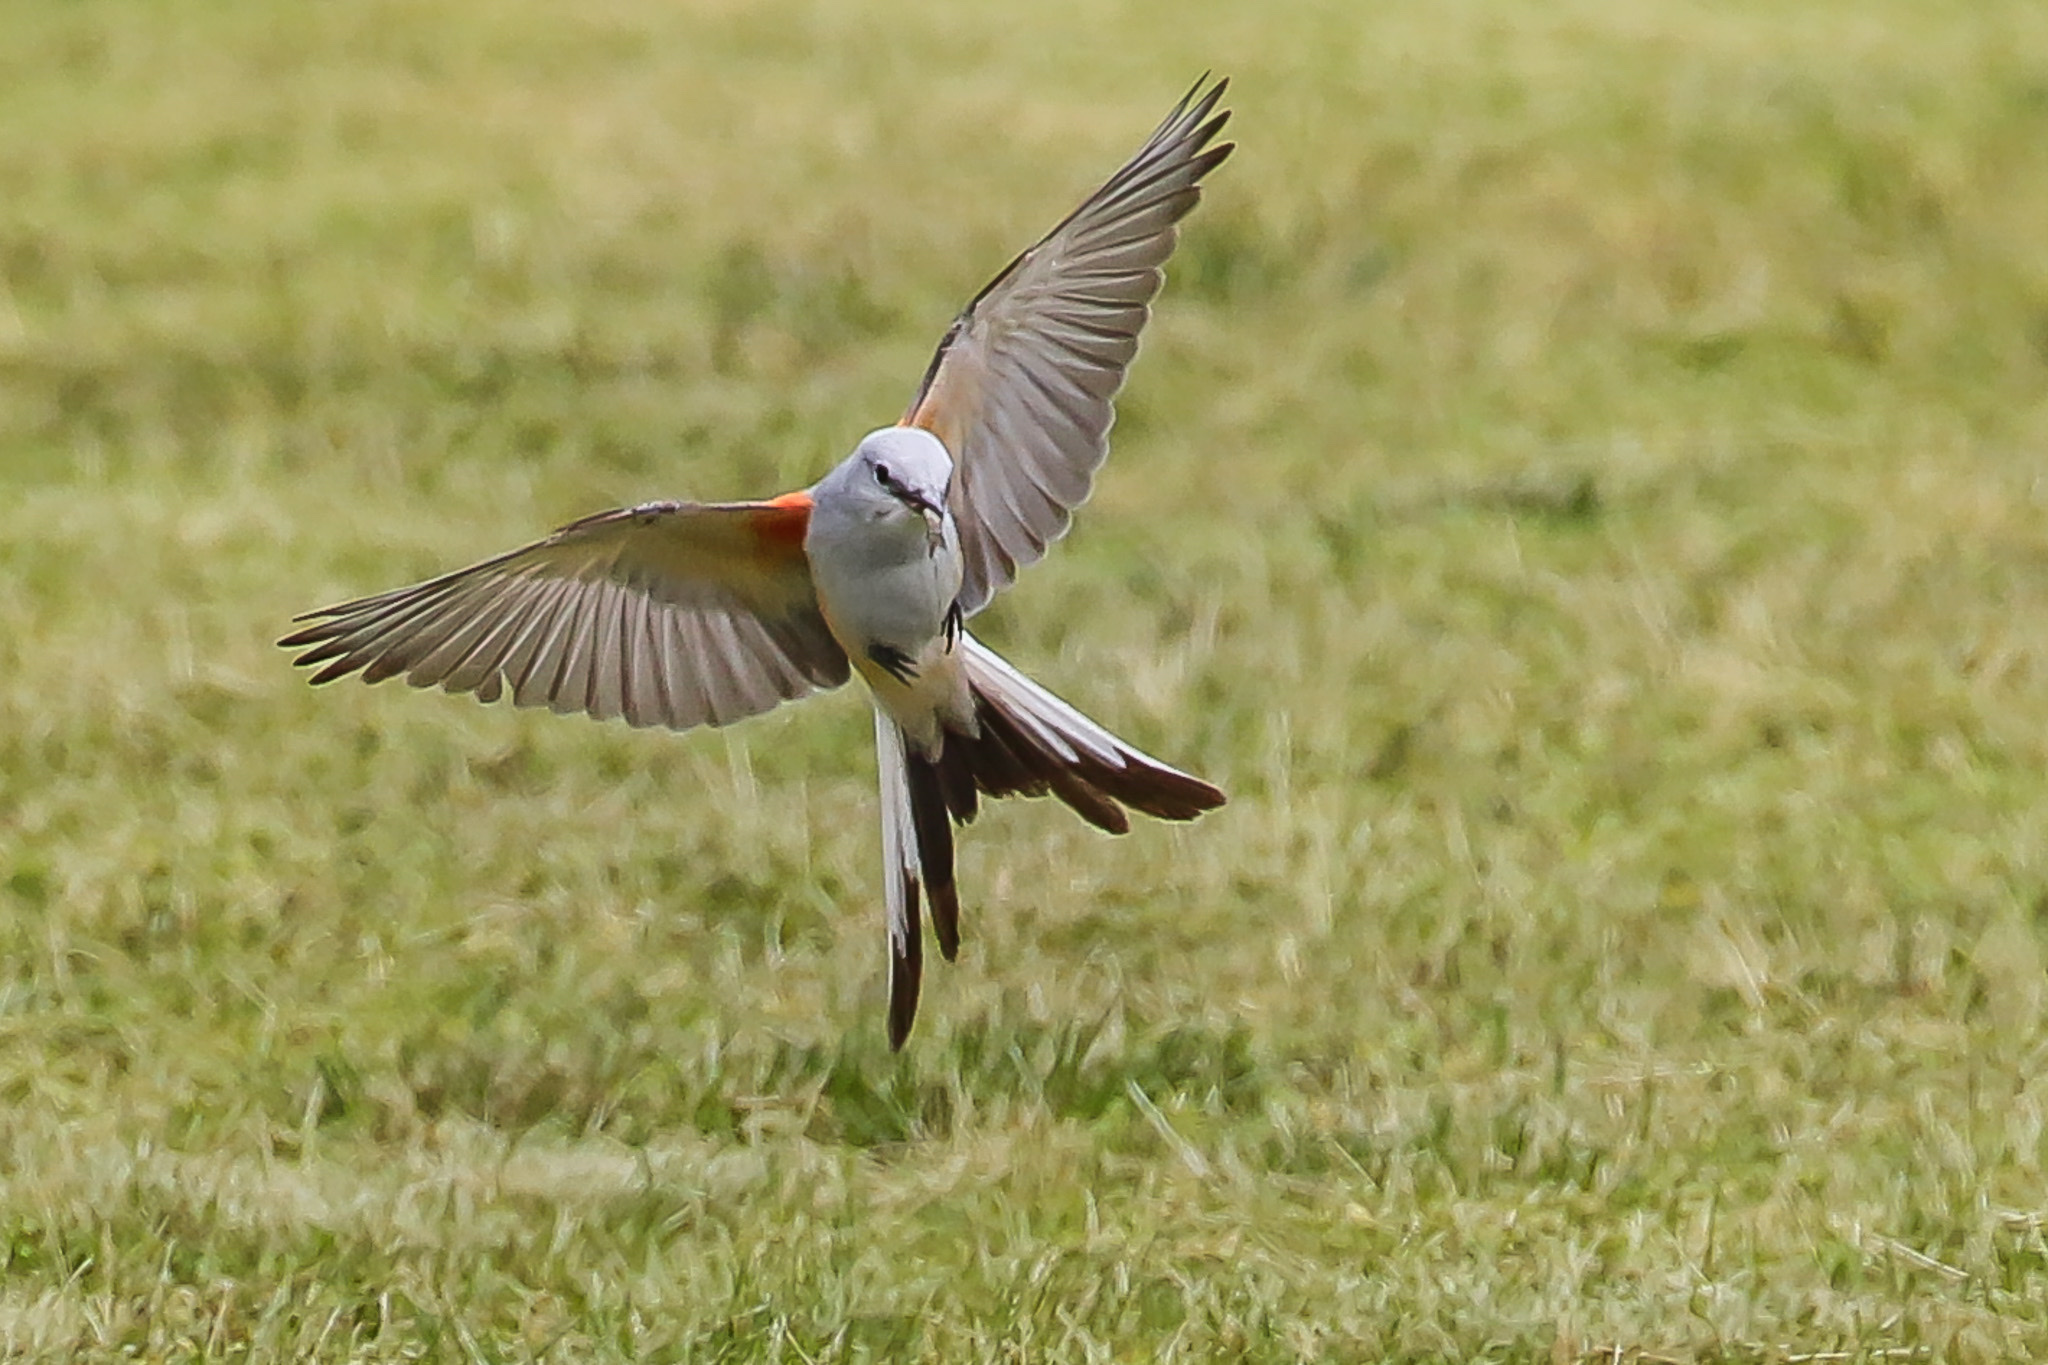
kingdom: Animalia
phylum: Chordata
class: Aves
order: Passeriformes
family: Tyrannidae
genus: Tyrannus
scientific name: Tyrannus forficatus
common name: Scissor-tailed flycatcher
